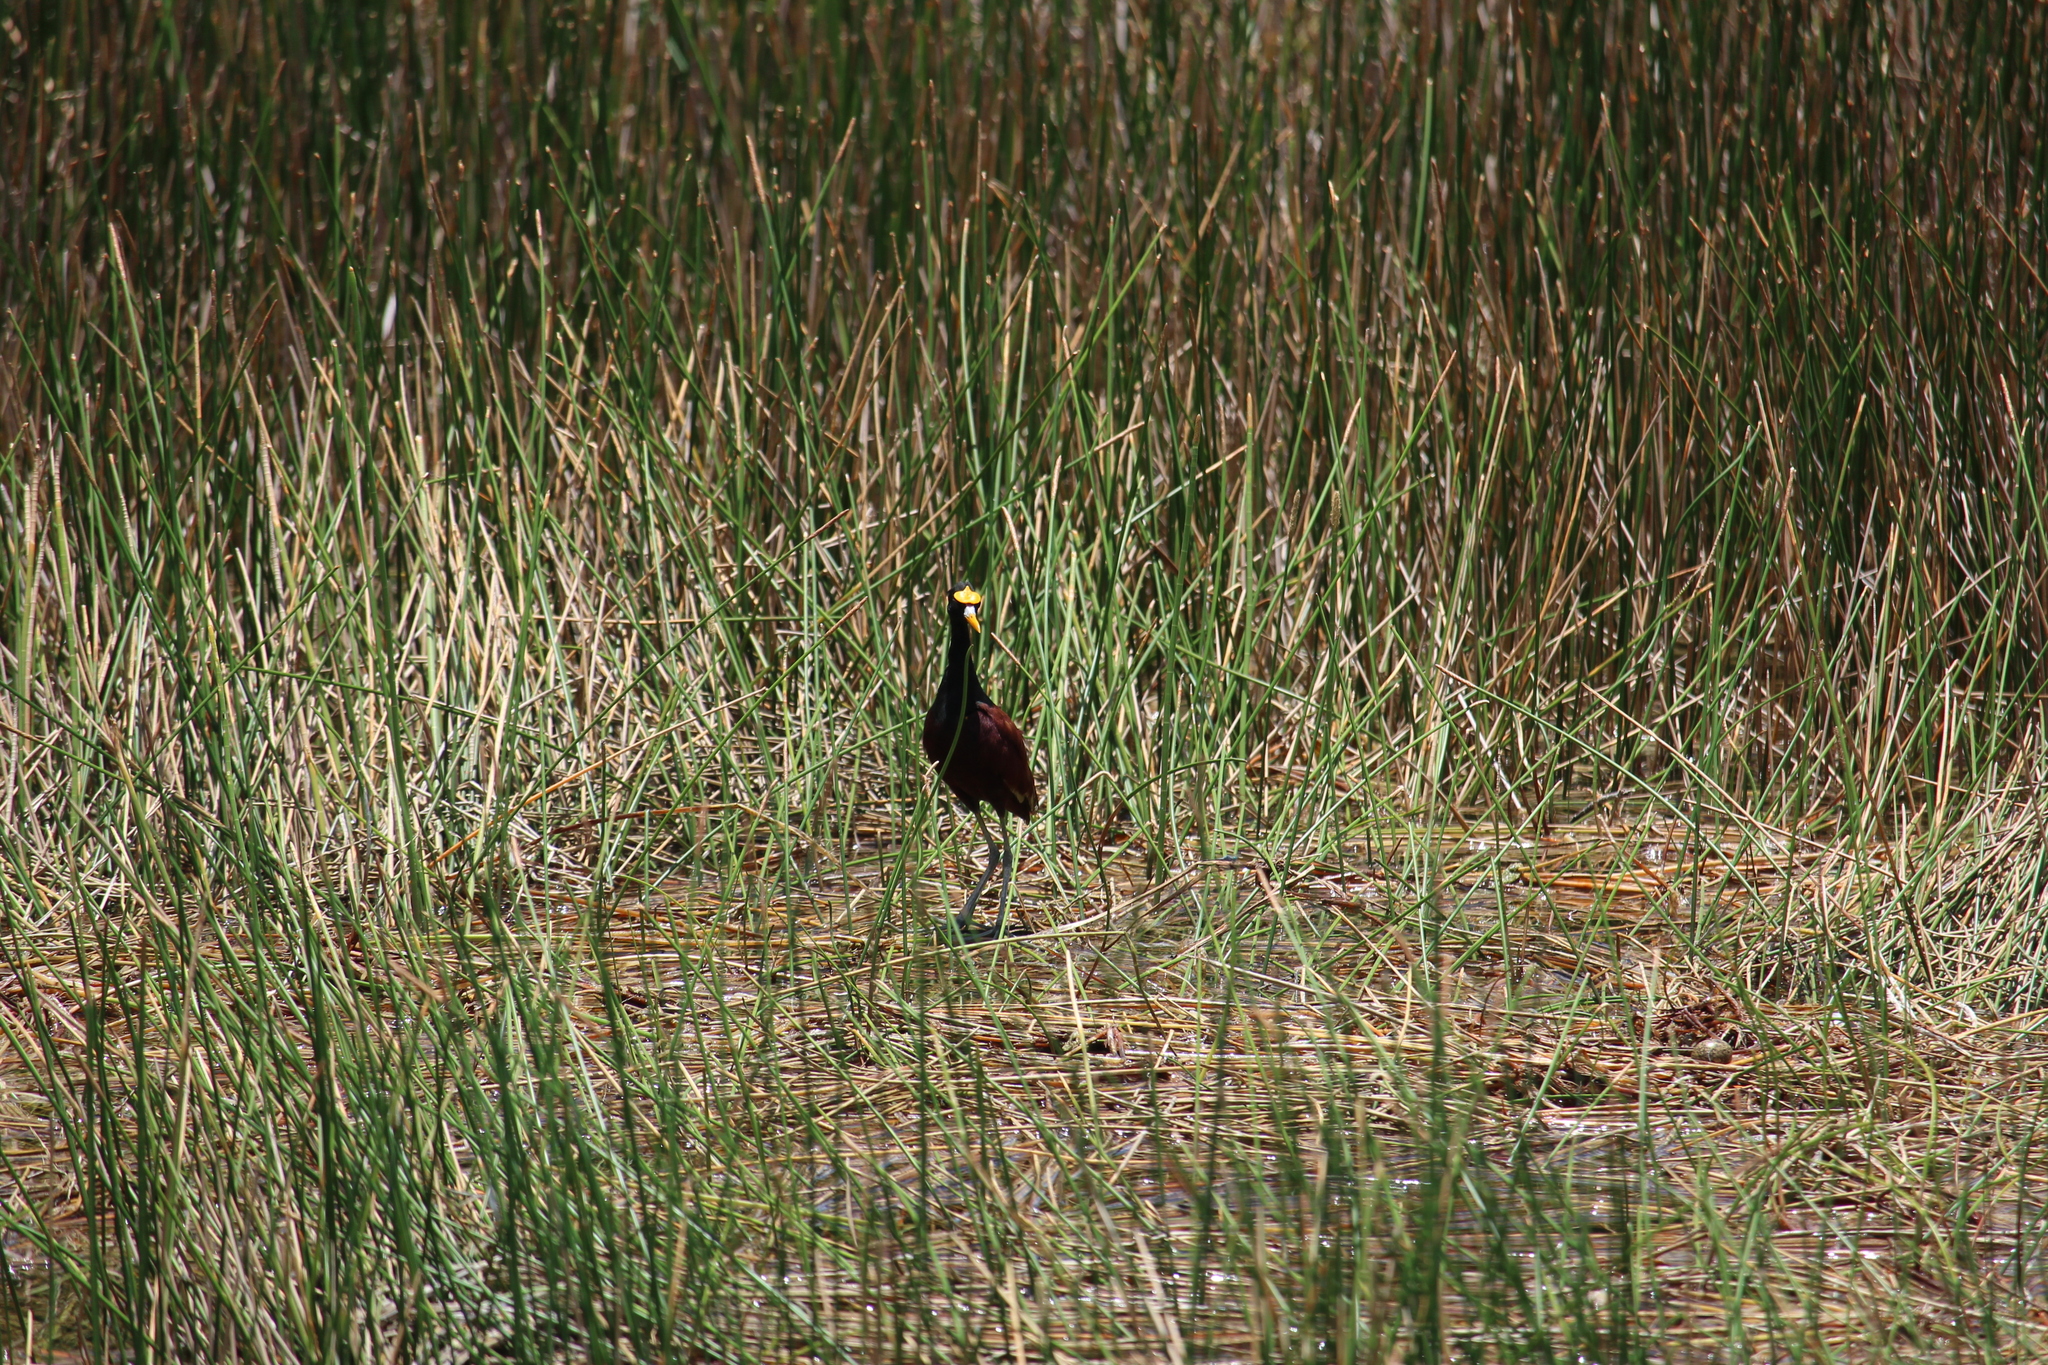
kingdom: Animalia
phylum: Chordata
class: Aves
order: Charadriiformes
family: Jacanidae
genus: Jacana
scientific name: Jacana spinosa
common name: Northern jacana
